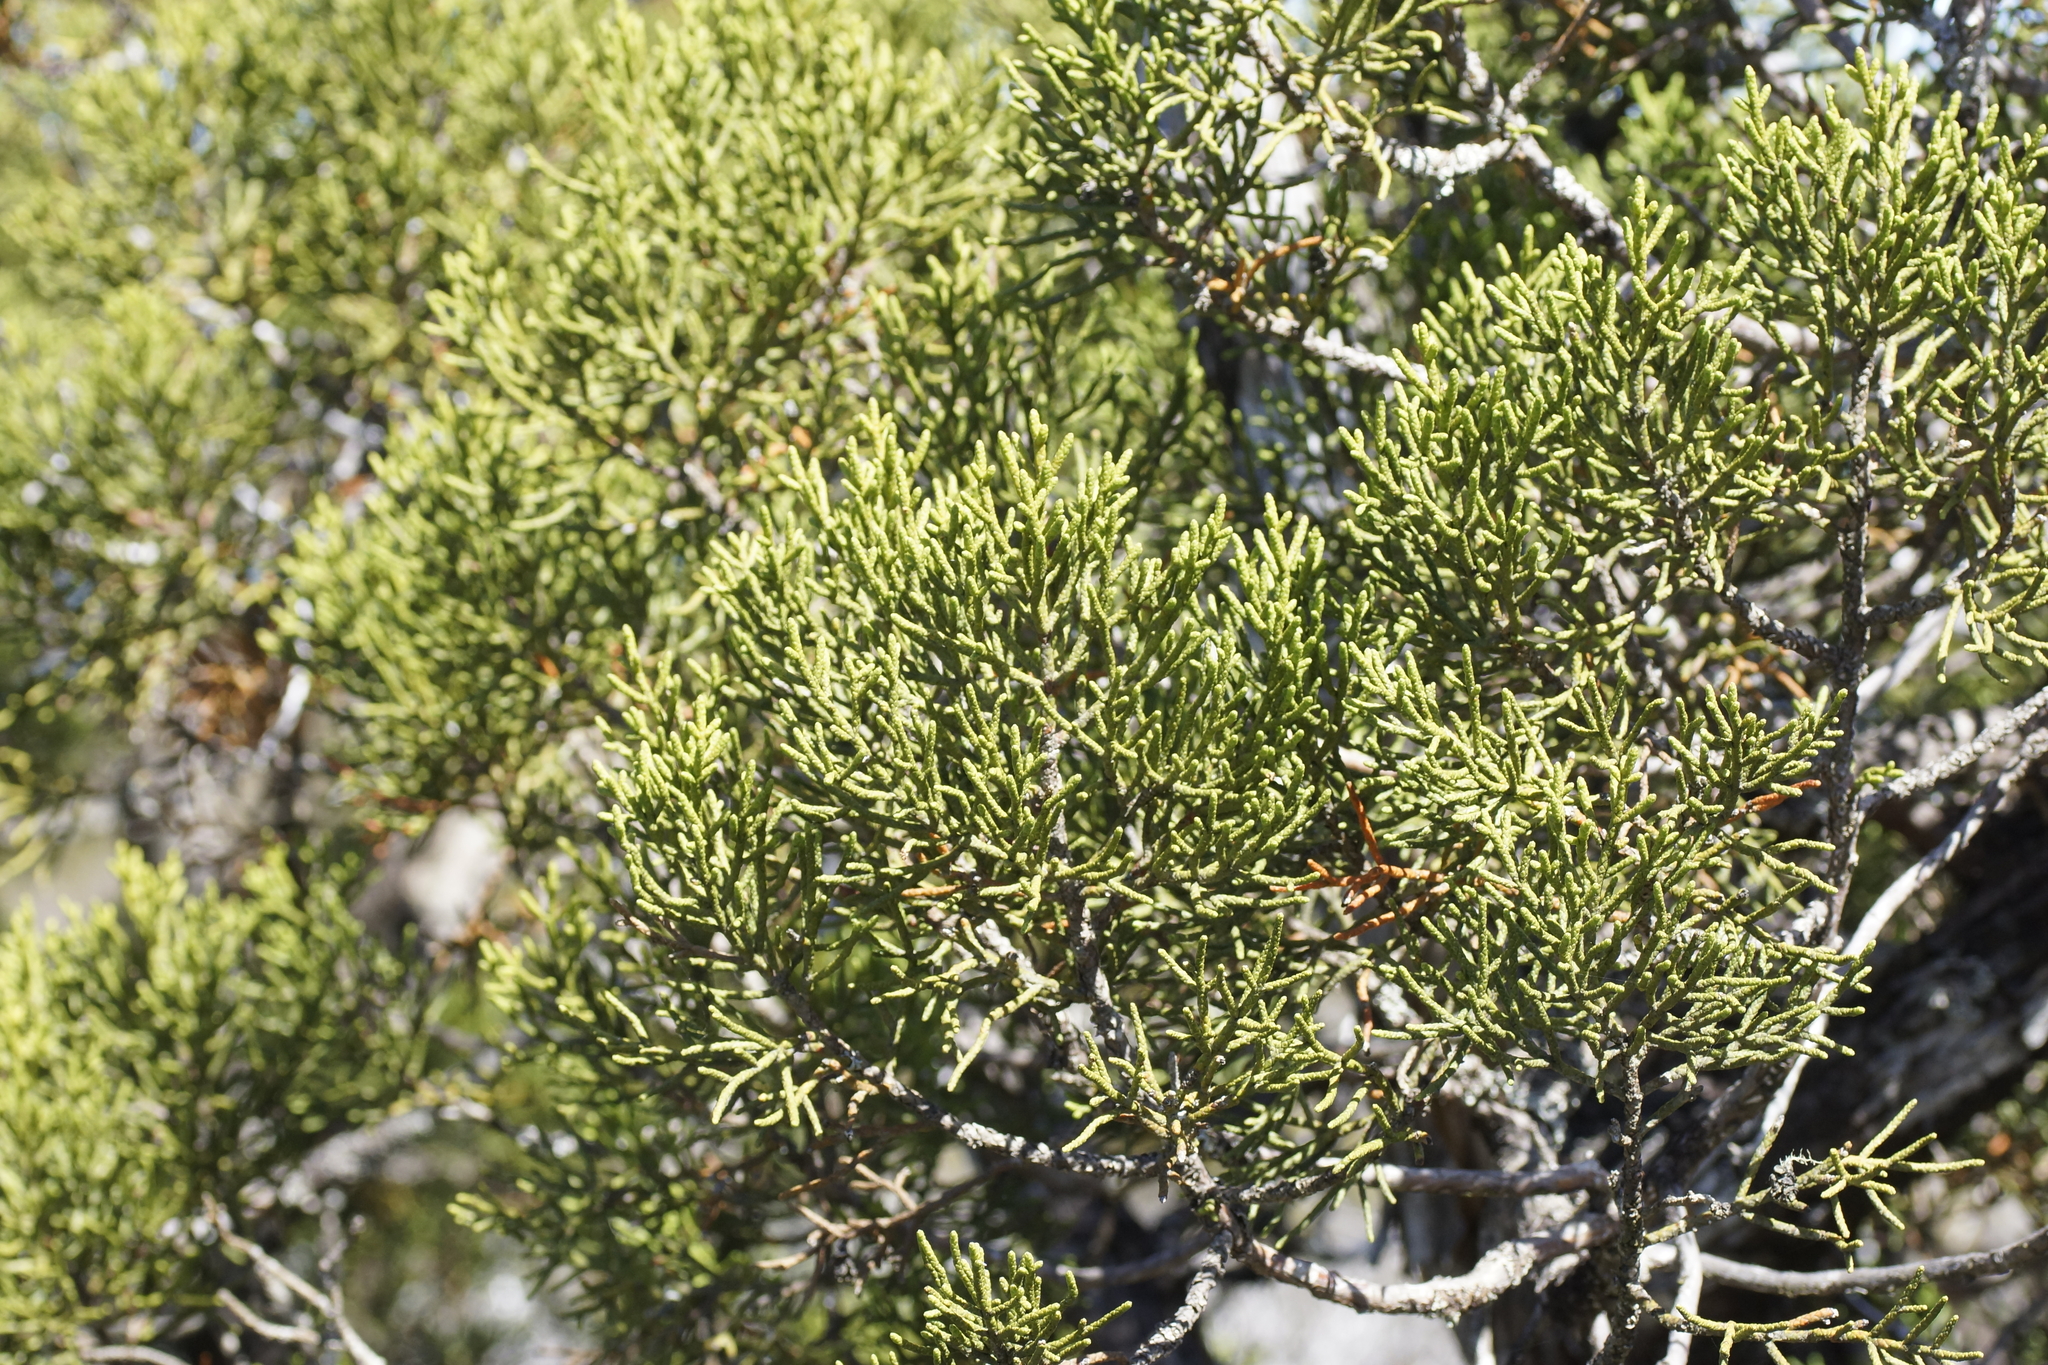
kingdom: Plantae
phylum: Tracheophyta
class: Pinopsida
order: Pinales
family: Cupressaceae
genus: Athrotaxis
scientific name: Athrotaxis cupressoides
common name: Tasmanian pencil pine
